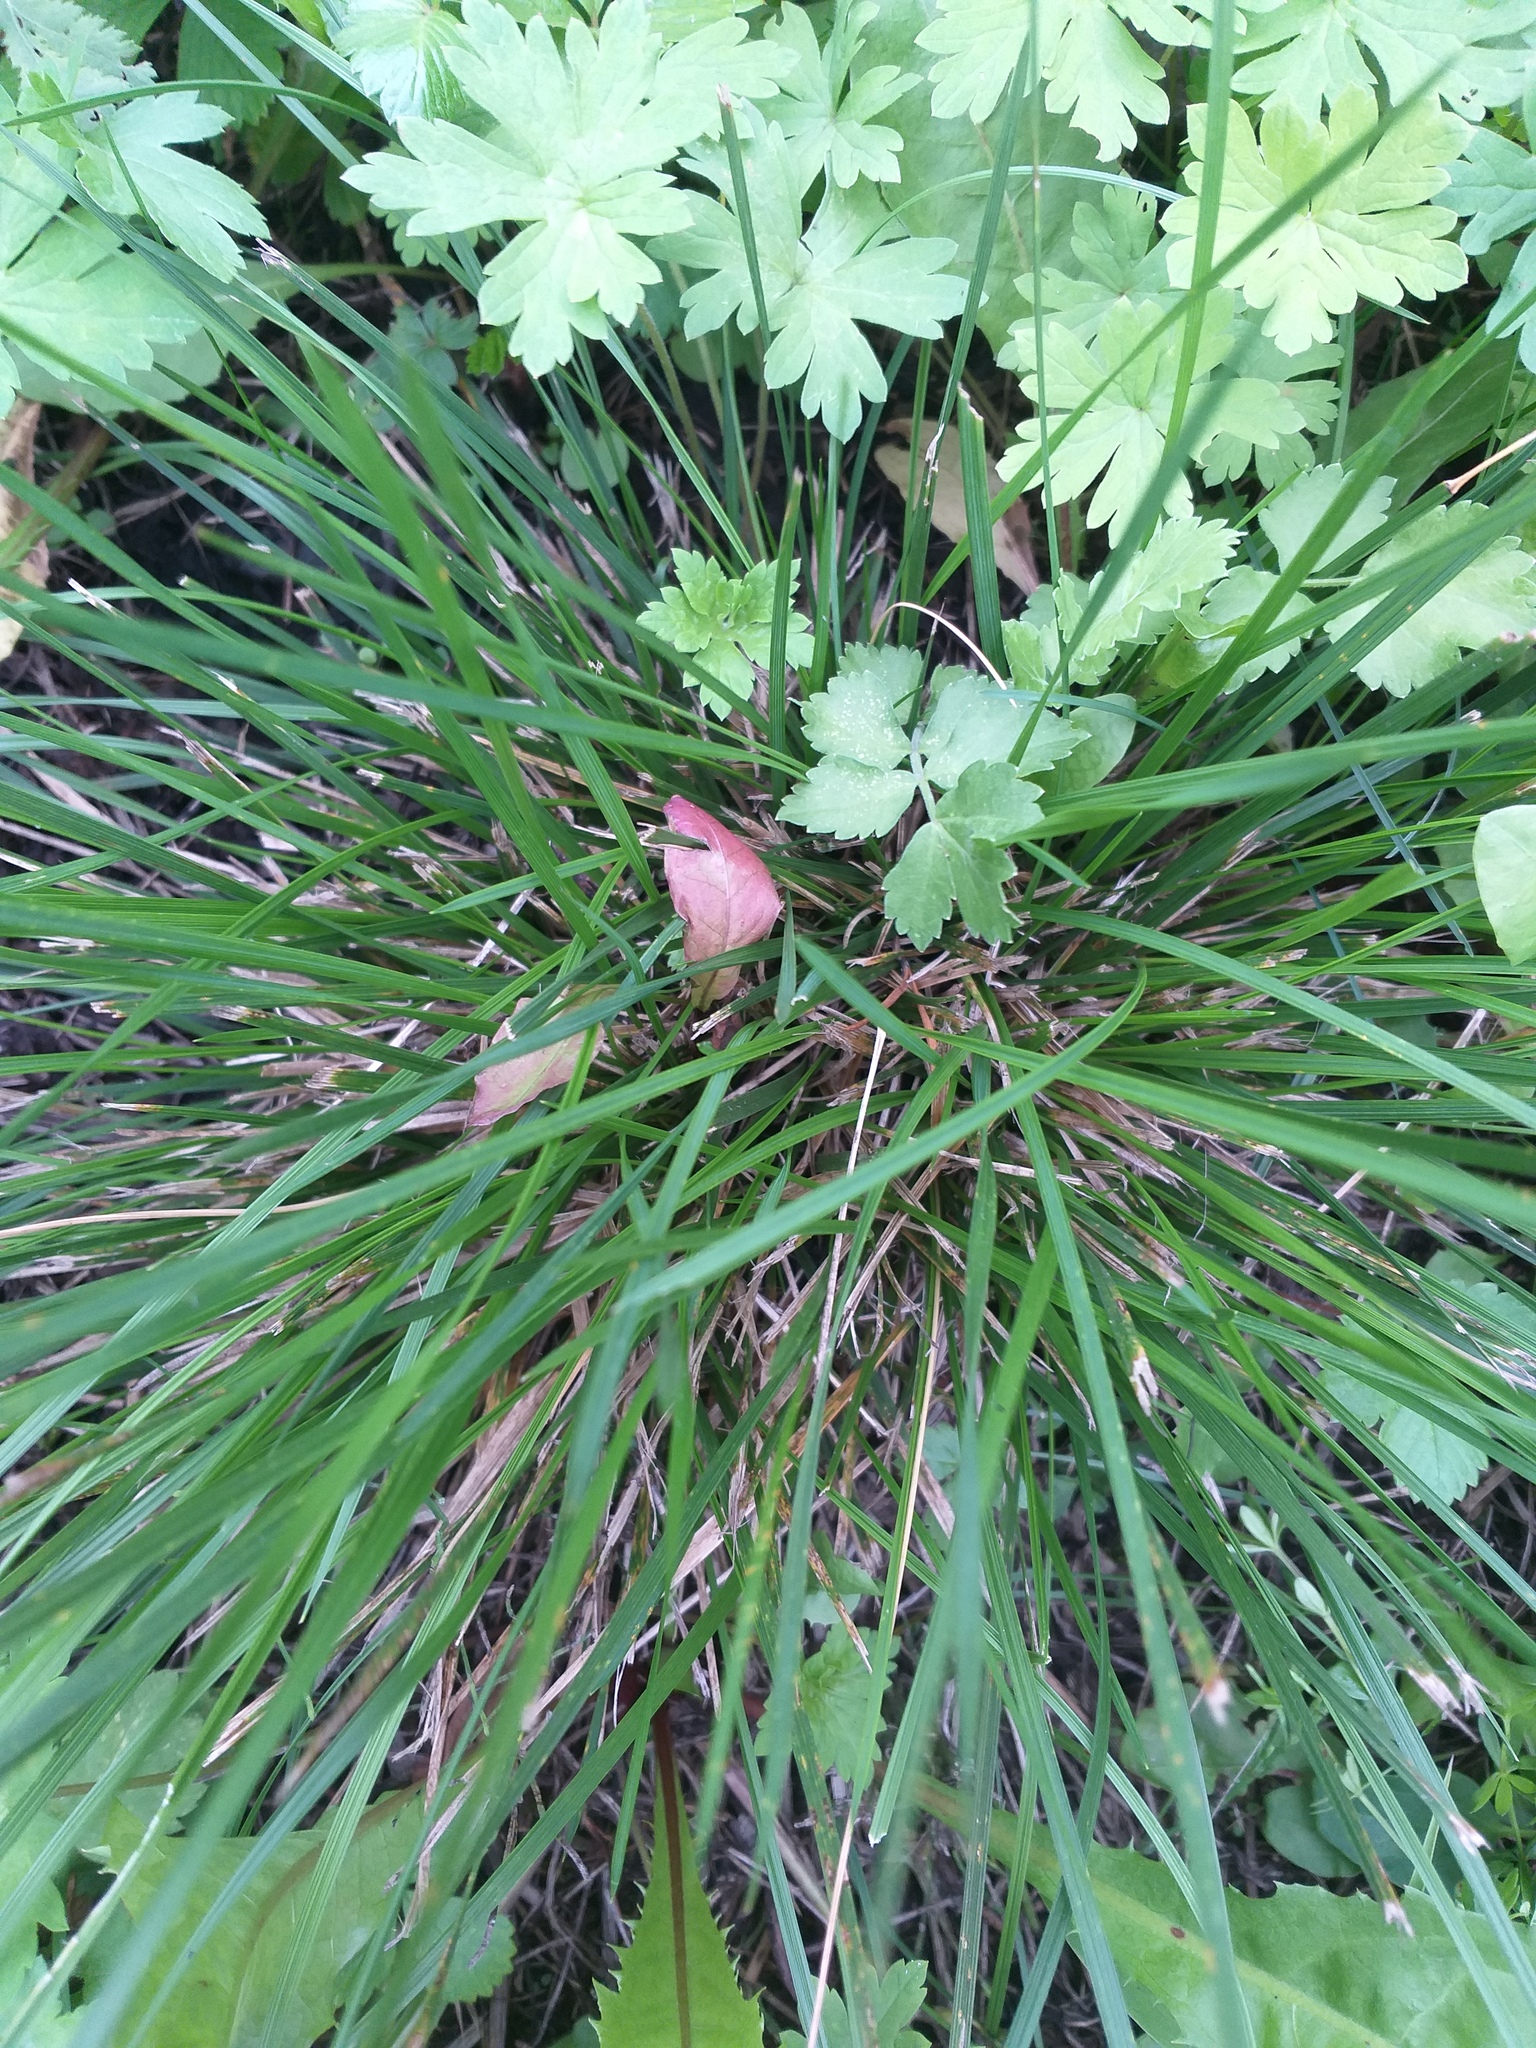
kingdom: Plantae
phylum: Tracheophyta
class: Liliopsida
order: Poales
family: Poaceae
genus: Deschampsia
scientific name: Deschampsia cespitosa
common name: Tufted hair-grass
